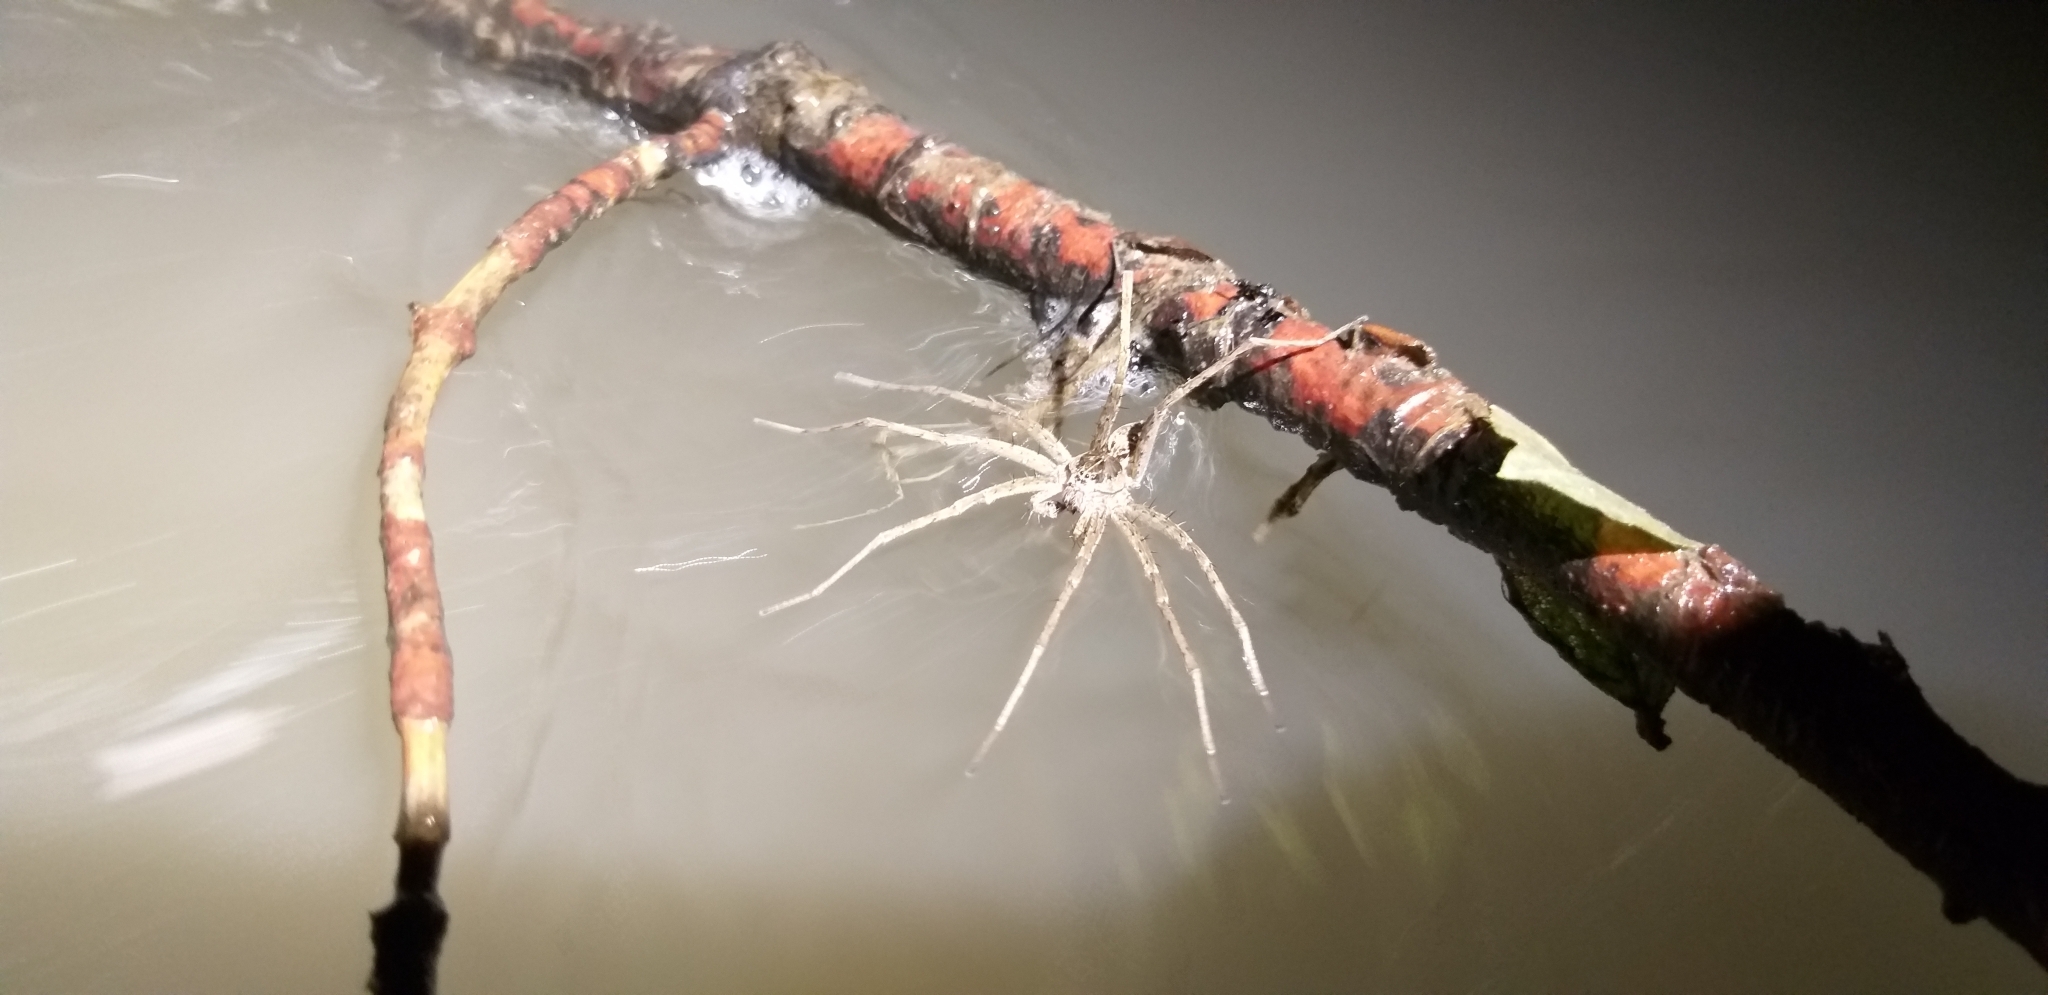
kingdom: Animalia
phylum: Arthropoda
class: Arachnida
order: Araneae
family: Pisauridae
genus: Dolomedes
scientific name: Dolomedes scriptus
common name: Striped fishing spider
